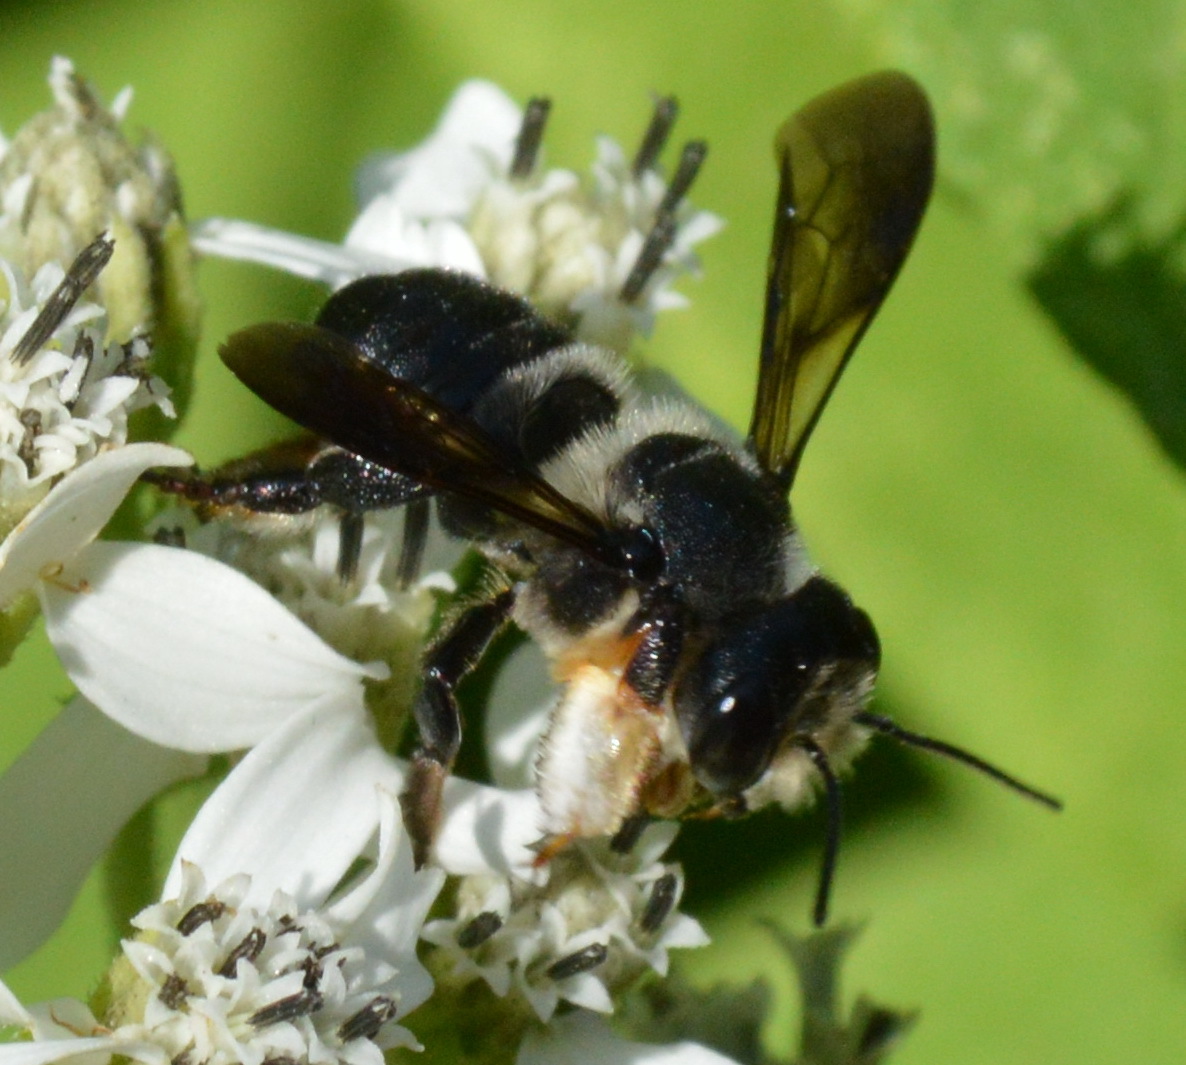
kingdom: Animalia
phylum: Arthropoda
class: Insecta
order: Hymenoptera
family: Megachilidae
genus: Megachile
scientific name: Megachile xylocopoides
